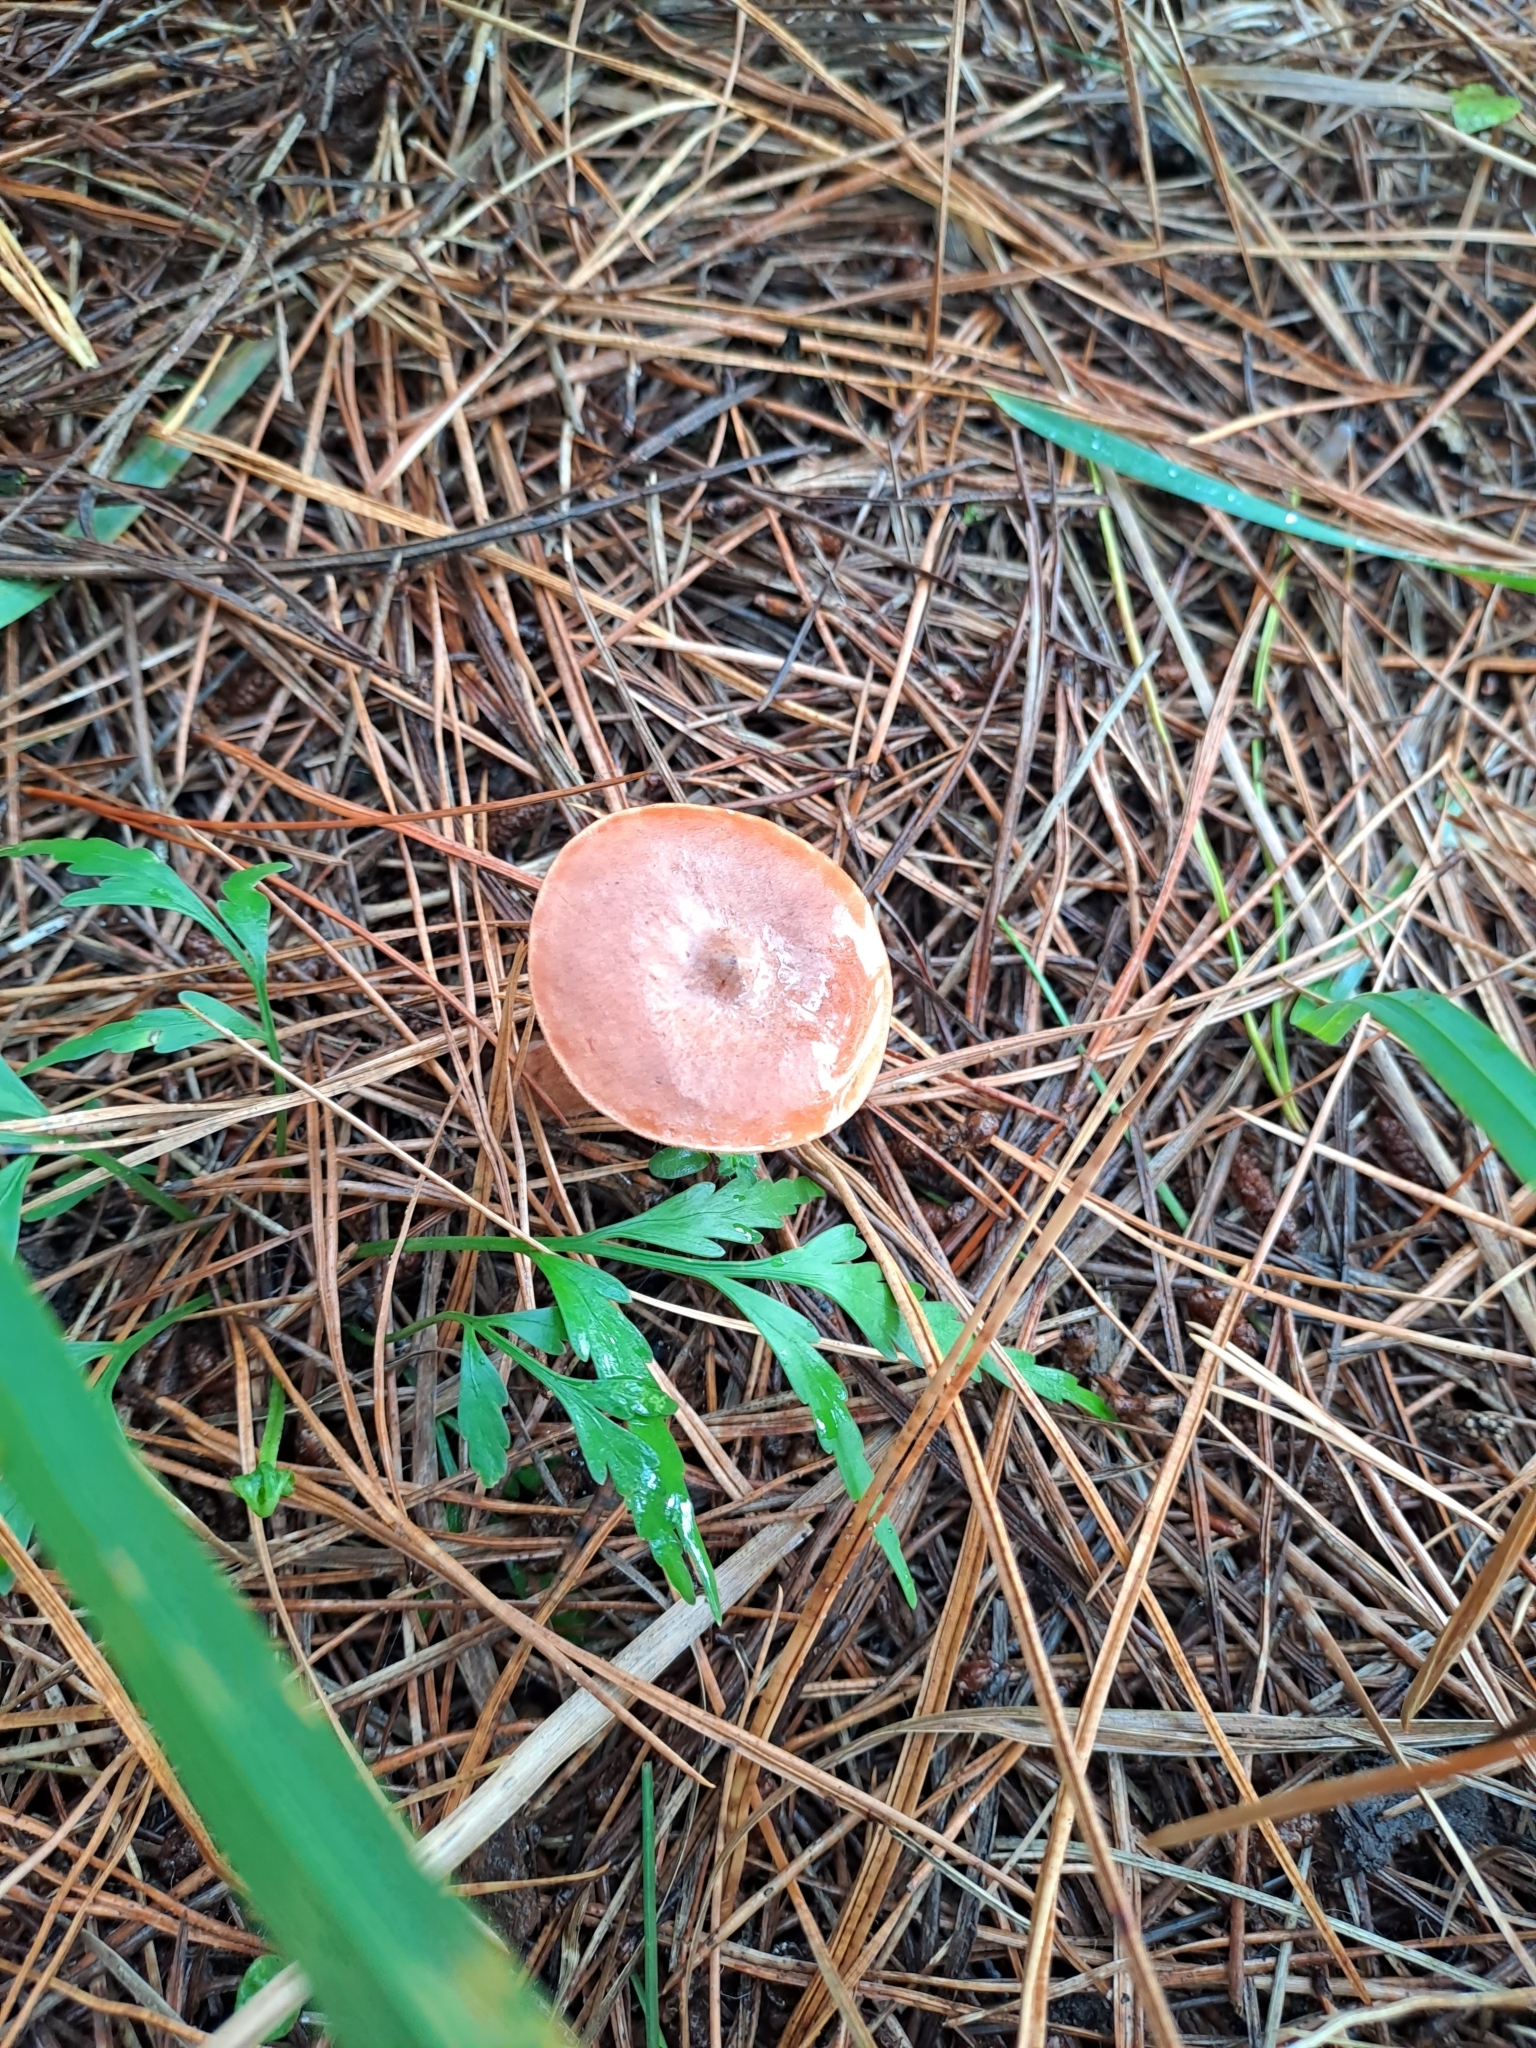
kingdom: Fungi
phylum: Basidiomycota
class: Agaricomycetes
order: Russulales
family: Russulaceae
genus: Lactarius
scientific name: Lactarius rufus
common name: Rufous milk-cap
